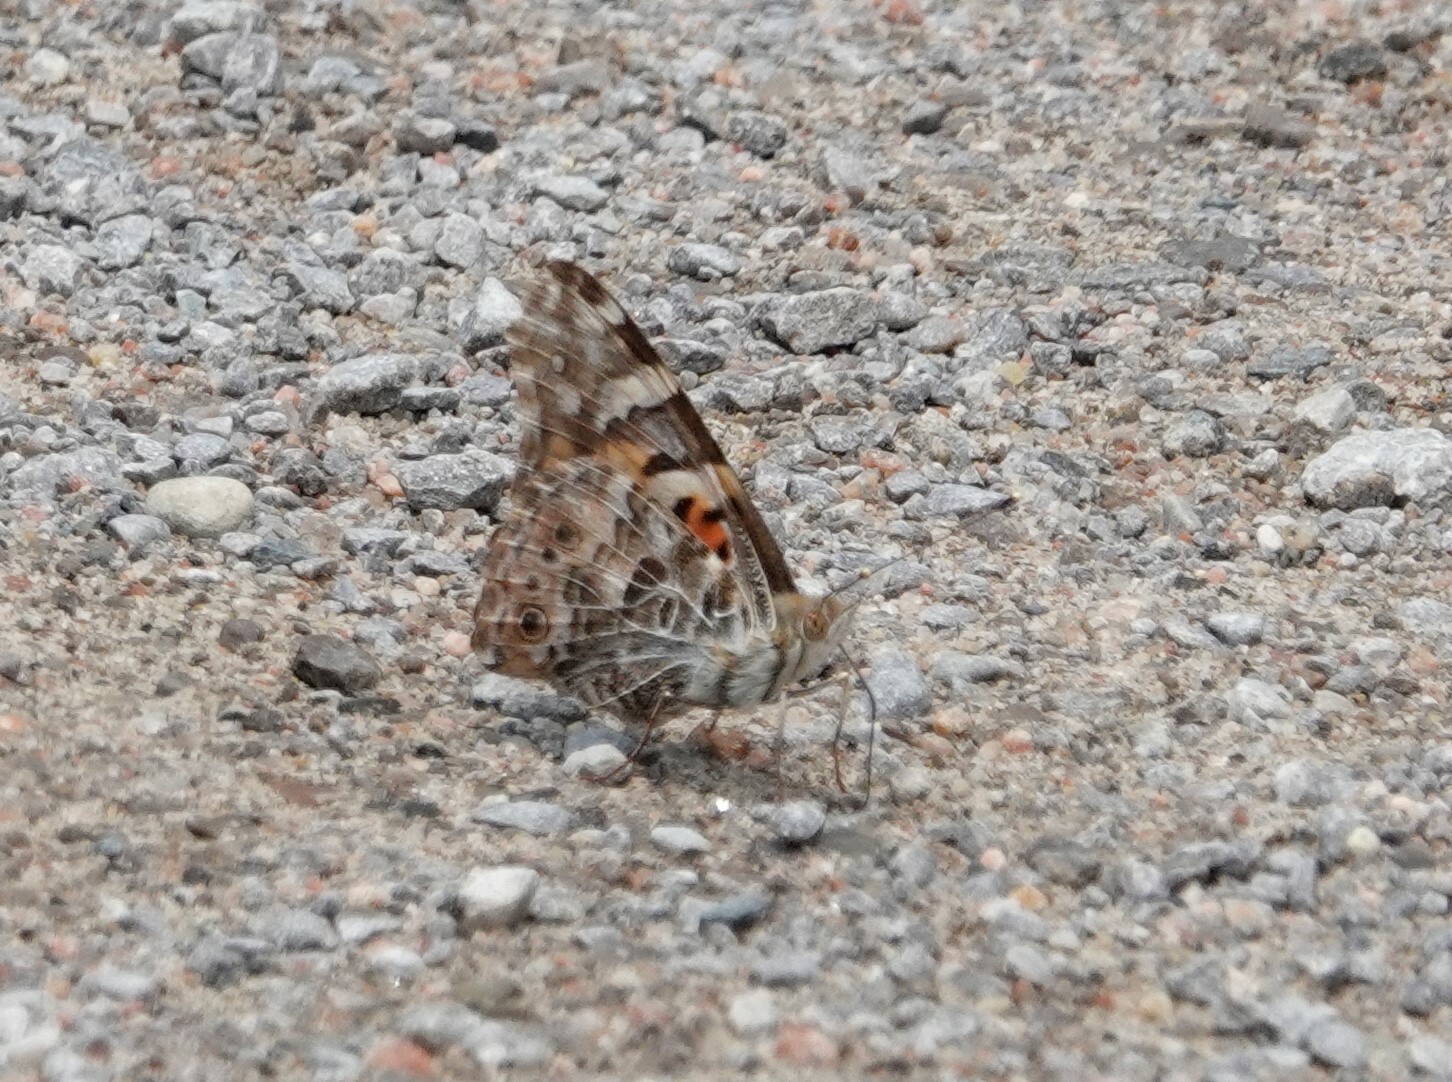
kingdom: Animalia
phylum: Arthropoda
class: Insecta
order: Lepidoptera
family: Nymphalidae
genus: Vanessa
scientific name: Vanessa cardui
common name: Painted lady
